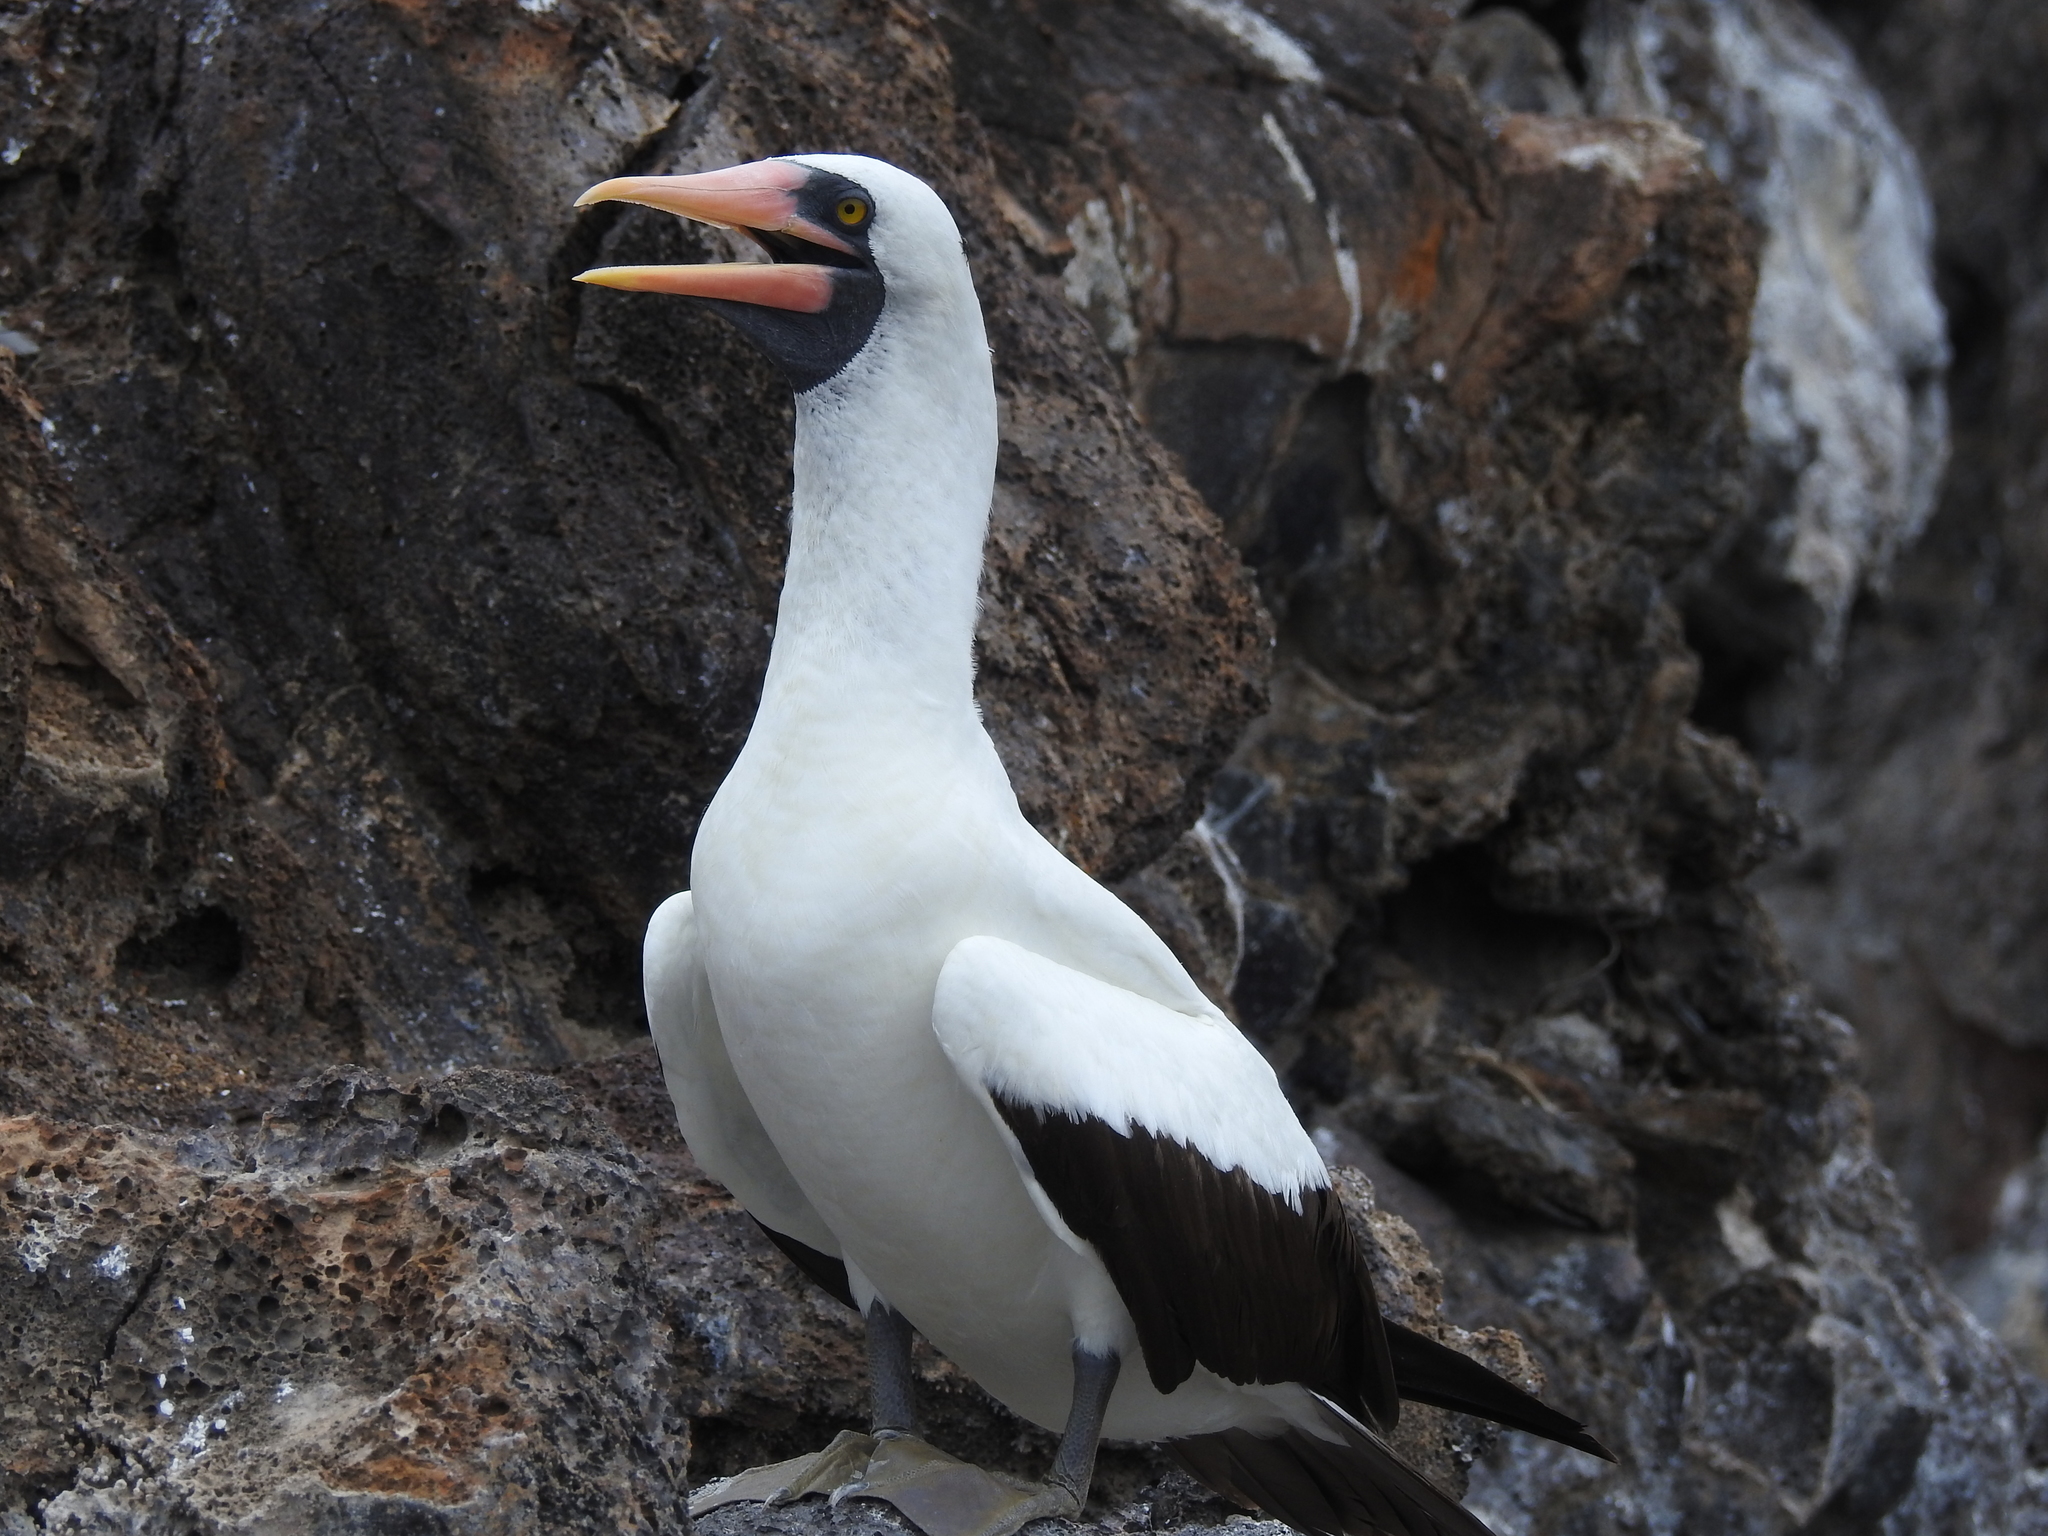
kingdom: Animalia
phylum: Chordata
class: Aves
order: Suliformes
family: Sulidae
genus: Sula
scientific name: Sula granti
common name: Nazca booby
